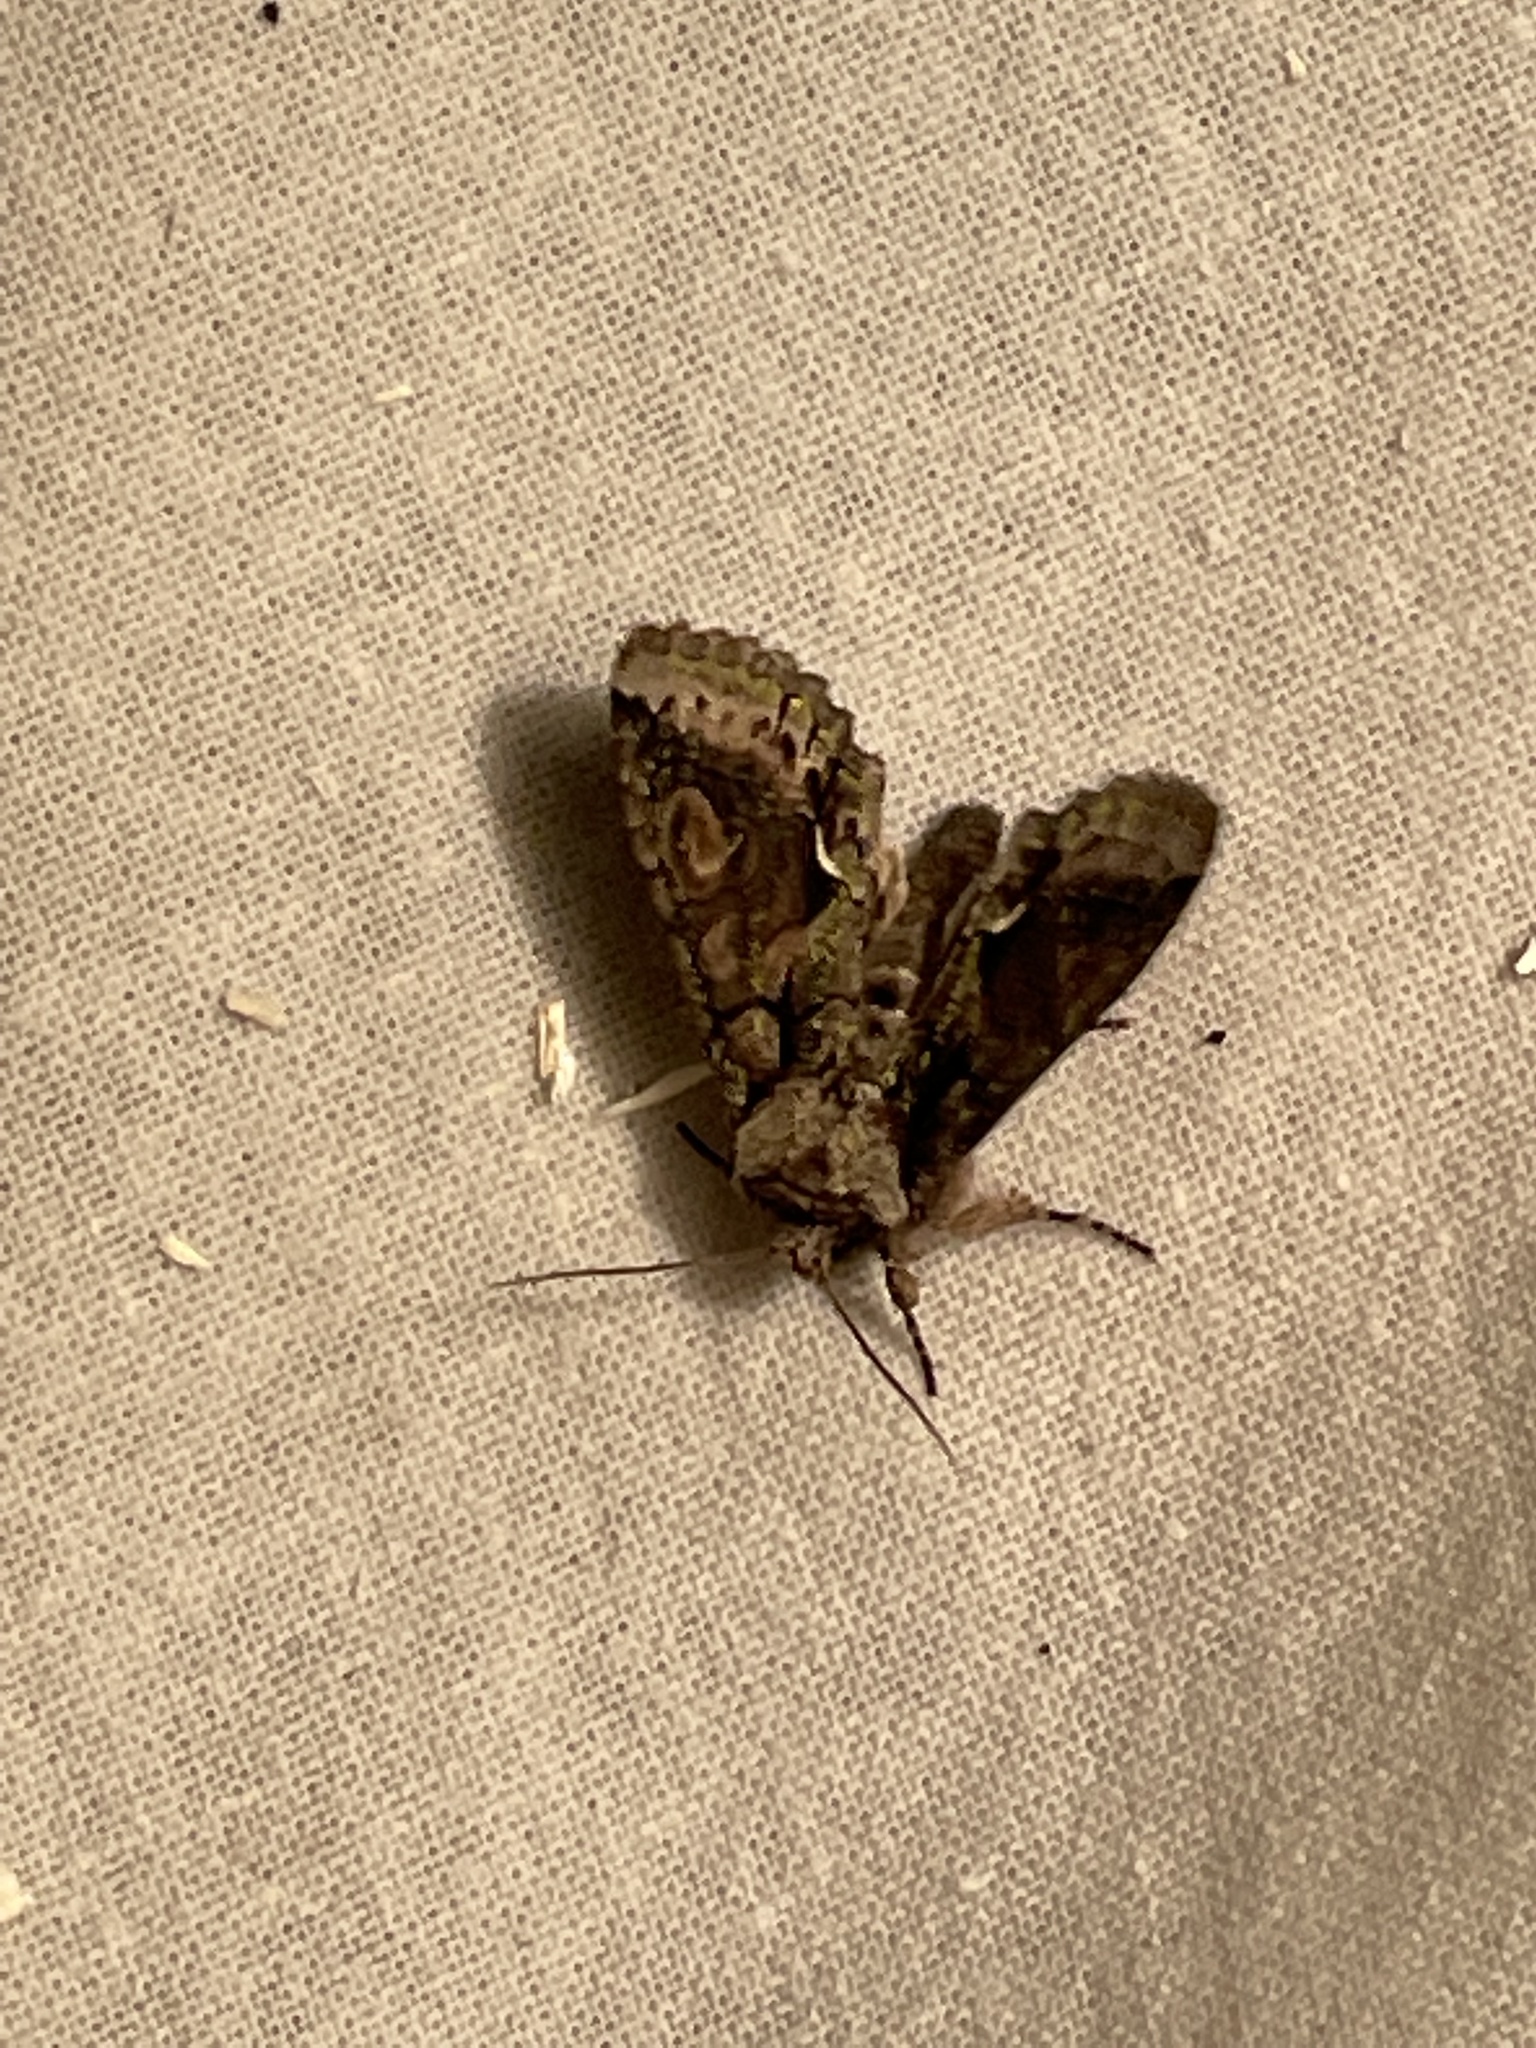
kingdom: Animalia
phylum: Arthropoda
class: Insecta
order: Lepidoptera
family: Noctuidae
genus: Allophyes
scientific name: Allophyes oxyacanthae
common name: Green-brindled crescent
